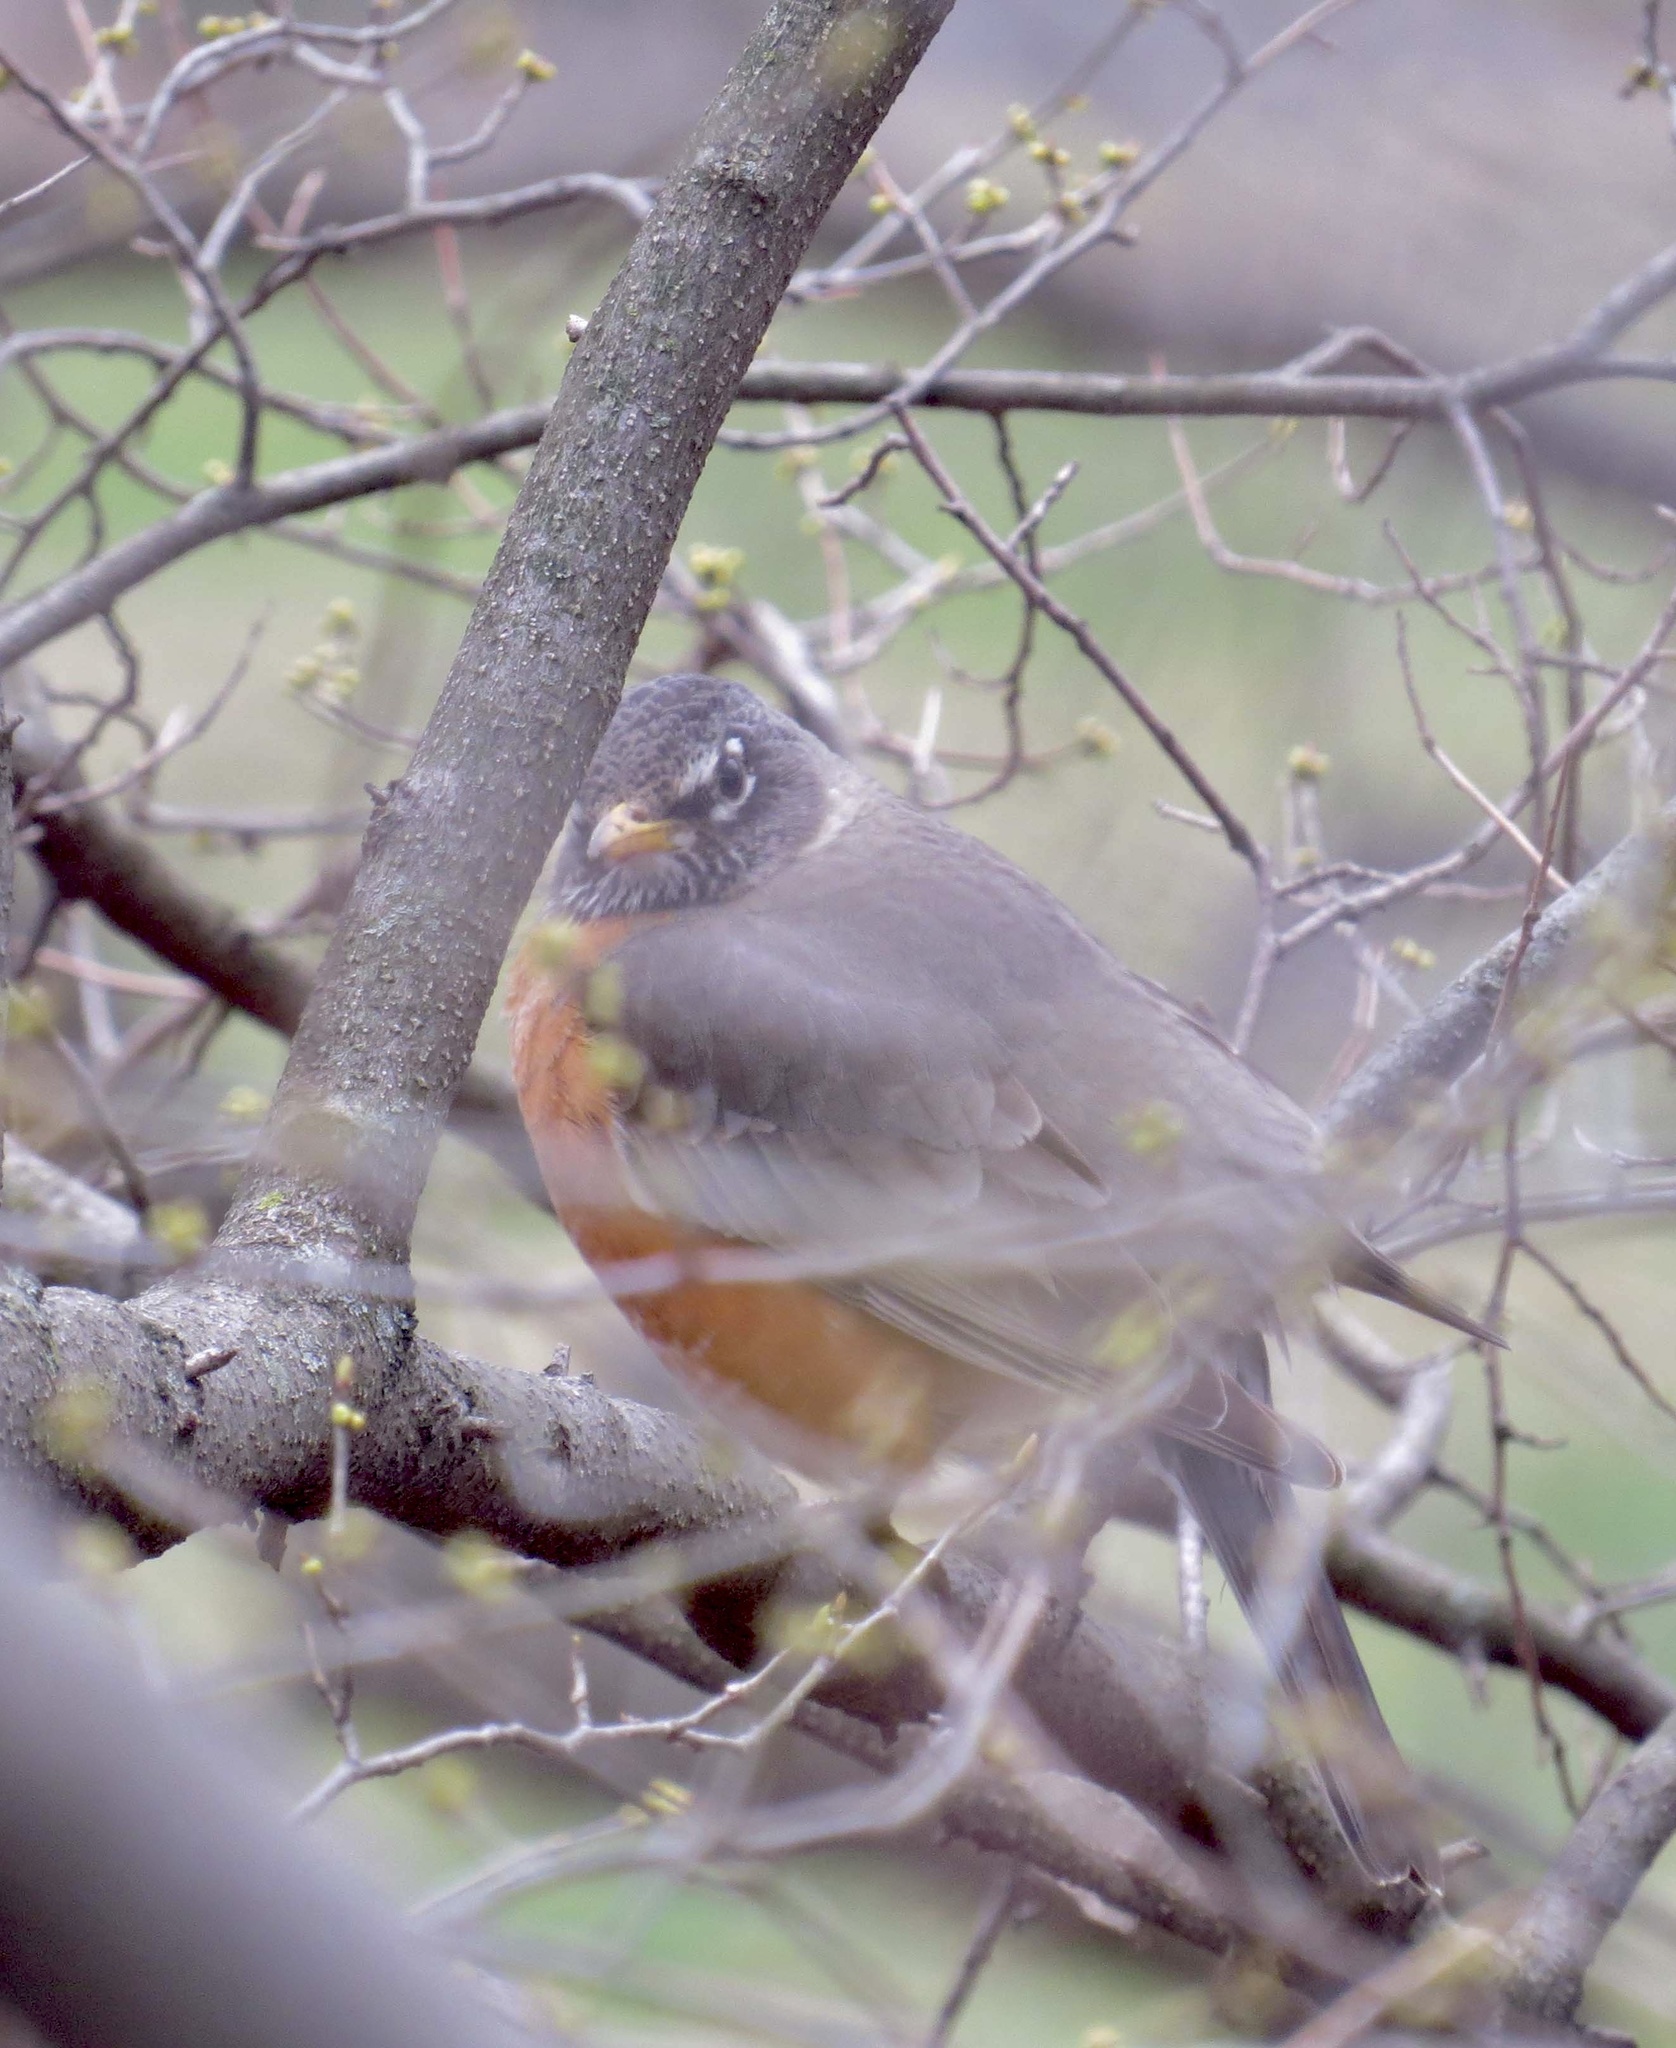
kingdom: Animalia
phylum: Chordata
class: Aves
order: Passeriformes
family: Turdidae
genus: Turdus
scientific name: Turdus migratorius
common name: American robin
